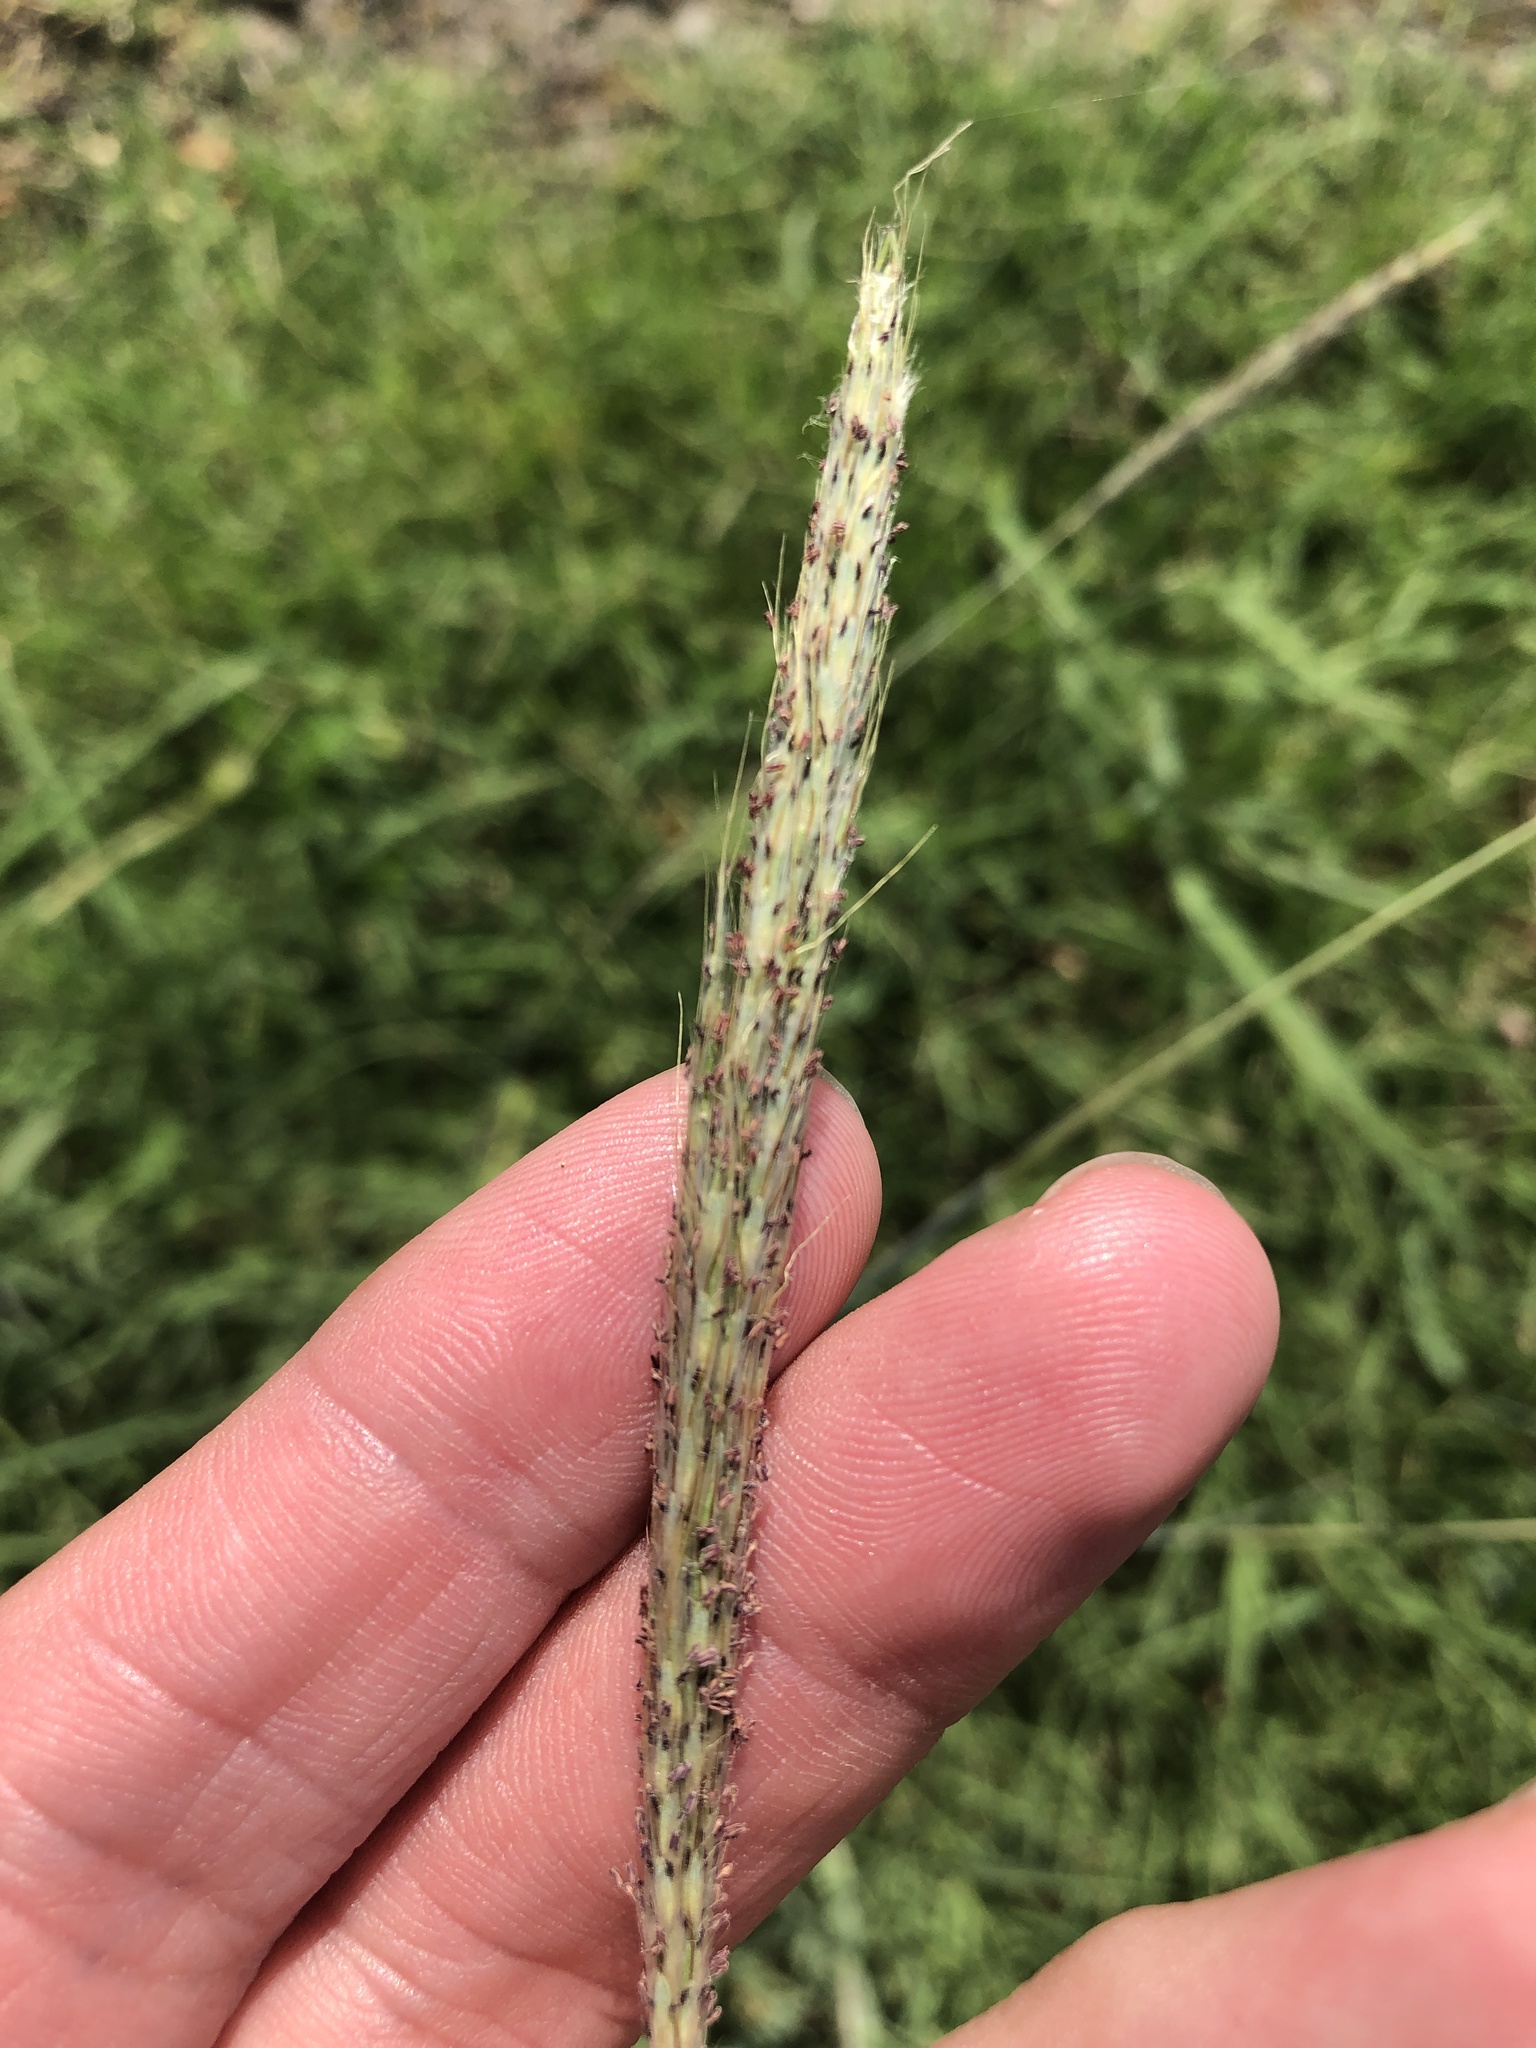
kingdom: Plantae
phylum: Tracheophyta
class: Liliopsida
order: Poales
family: Poaceae
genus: Bothriochloa
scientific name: Bothriochloa torreyana
